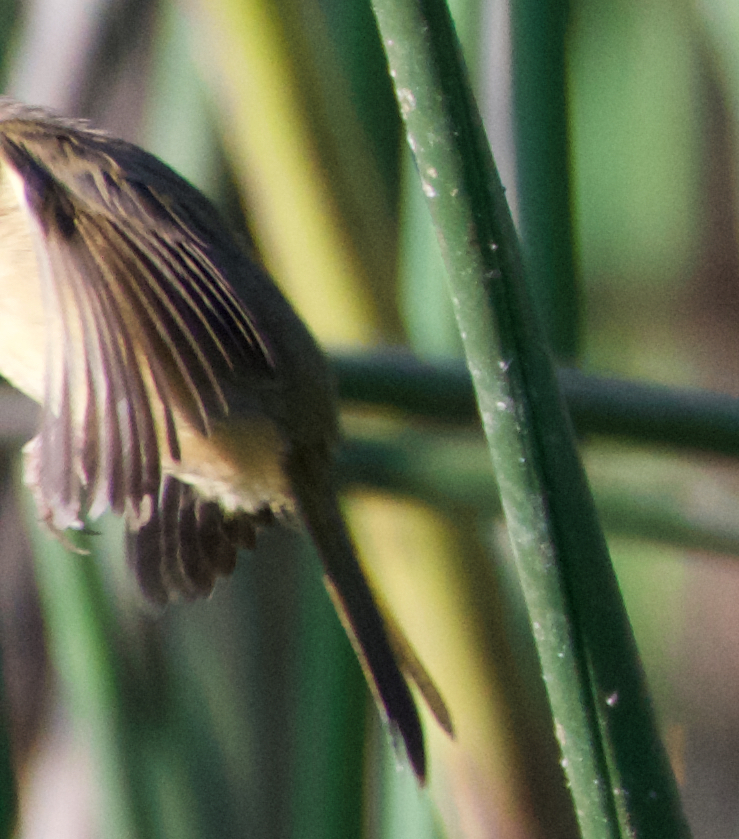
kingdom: Animalia
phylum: Chordata
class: Aves
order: Passeriformes
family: Parulidae
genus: Geothlypis
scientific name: Geothlypis trichas
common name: Common yellowthroat
